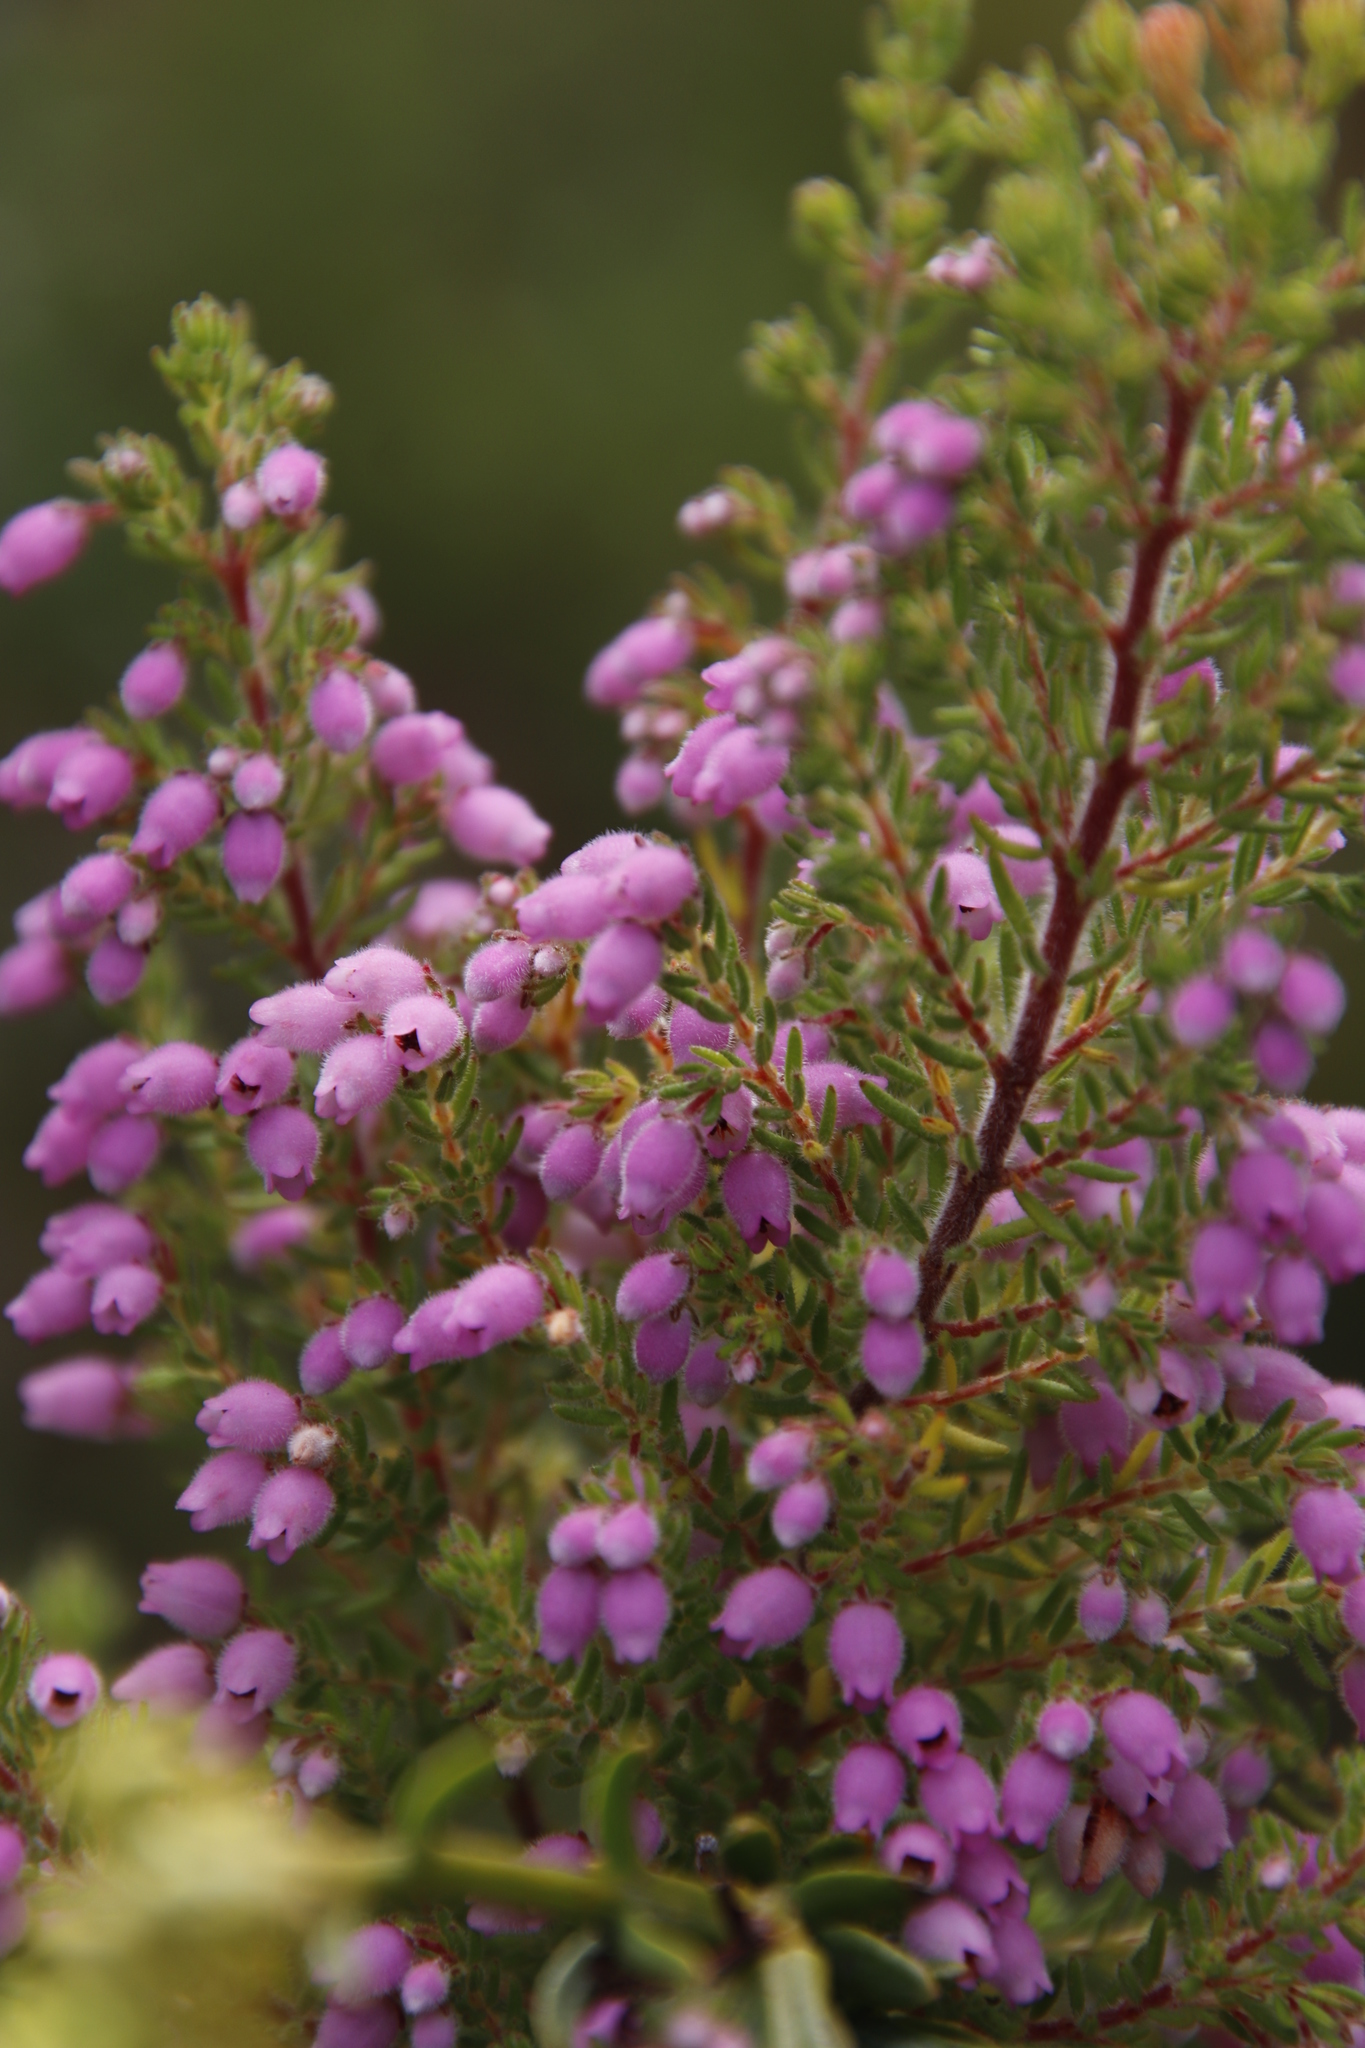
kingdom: Plantae
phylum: Tracheophyta
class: Magnoliopsida
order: Ericales
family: Ericaceae
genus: Erica
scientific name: Erica hirtiflora
